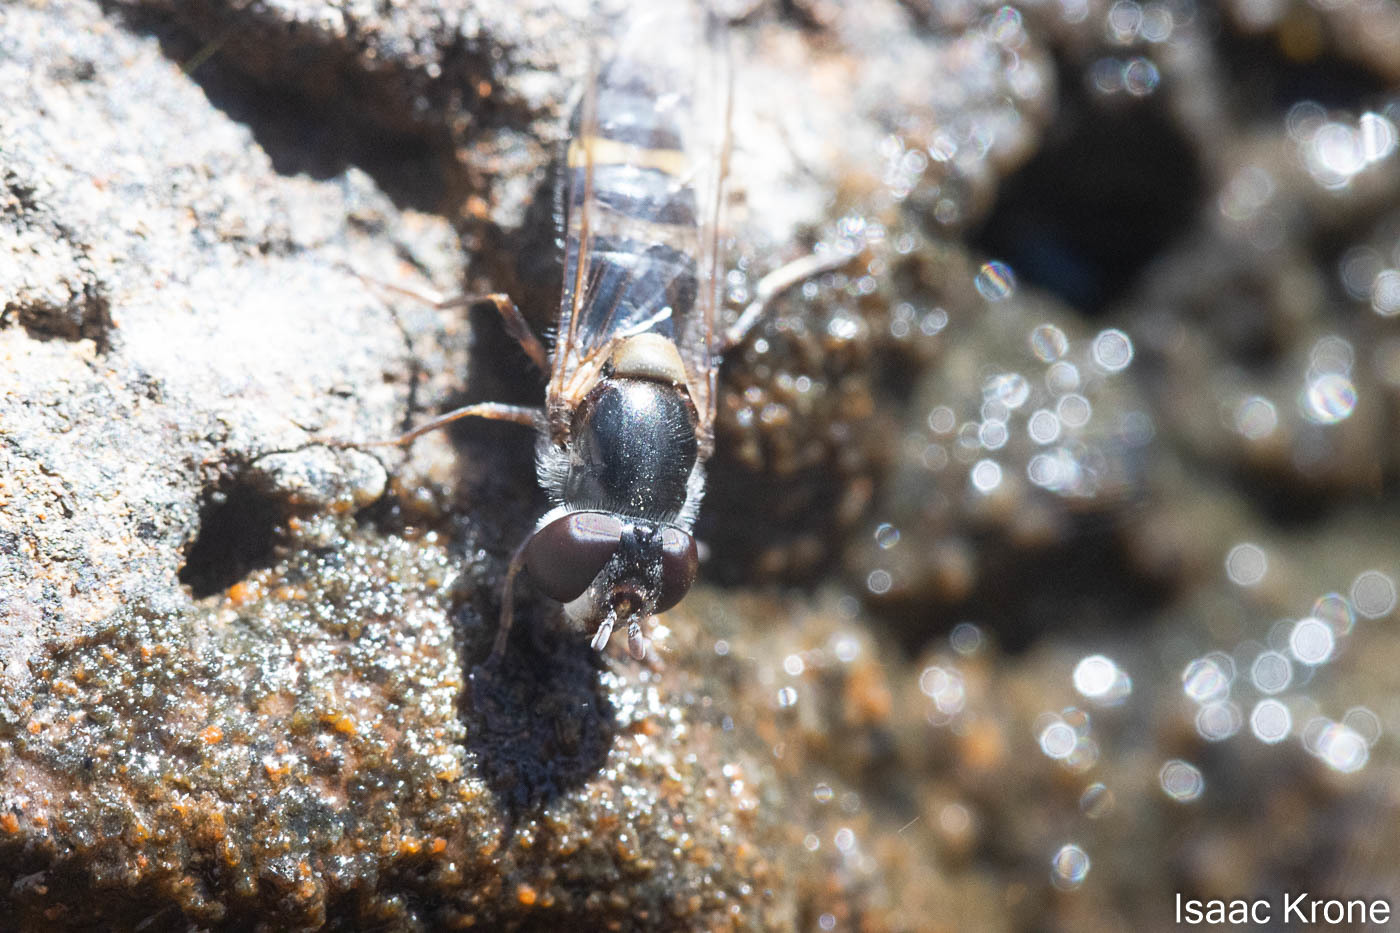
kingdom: Animalia
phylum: Arthropoda
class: Insecta
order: Diptera
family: Syrphidae
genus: Pseudoscaeva
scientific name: Pseudoscaeva diversifasciata
